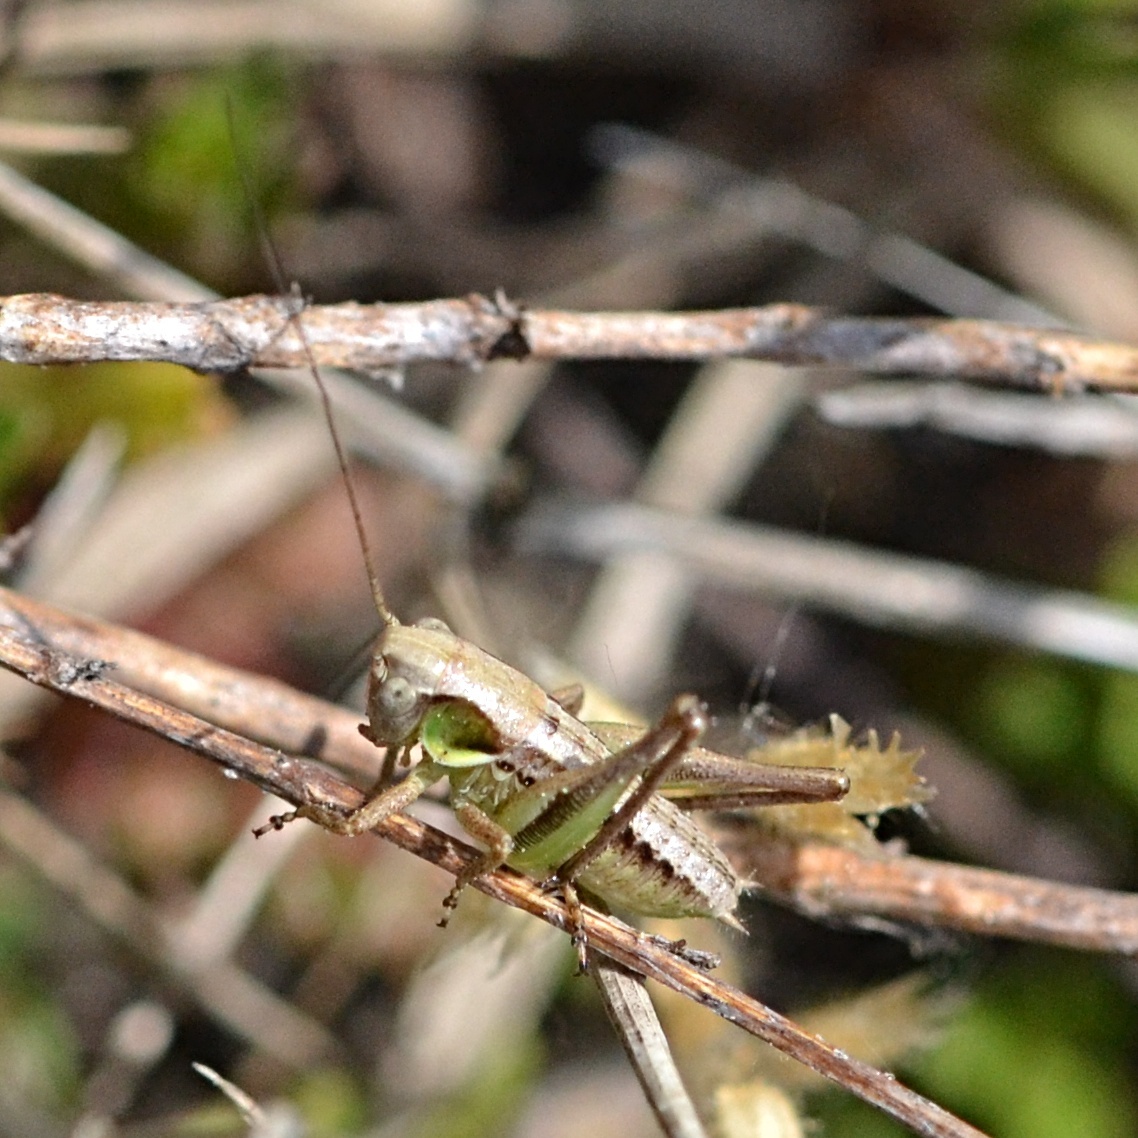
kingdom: Animalia
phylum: Arthropoda
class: Insecta
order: Orthoptera
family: Tettigoniidae
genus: Platycleis
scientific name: Platycleis albopunctata
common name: Grey bush-cricket
